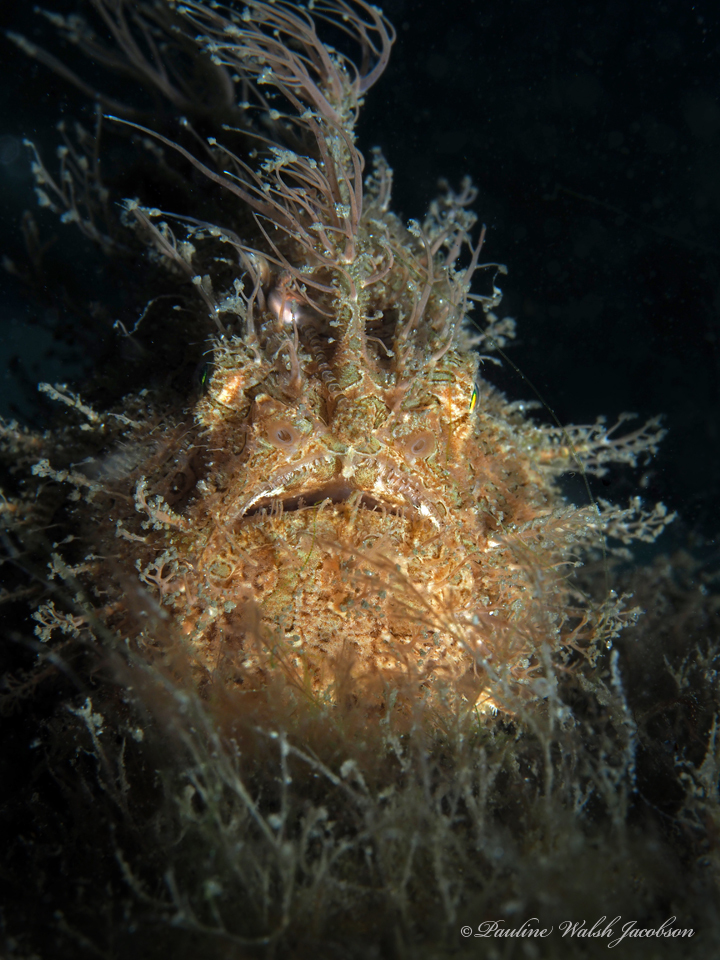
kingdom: Animalia
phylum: Chordata
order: Lophiiformes
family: Antennariidae
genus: Antennarius
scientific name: Antennarius striatus
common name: Striated frogfish
